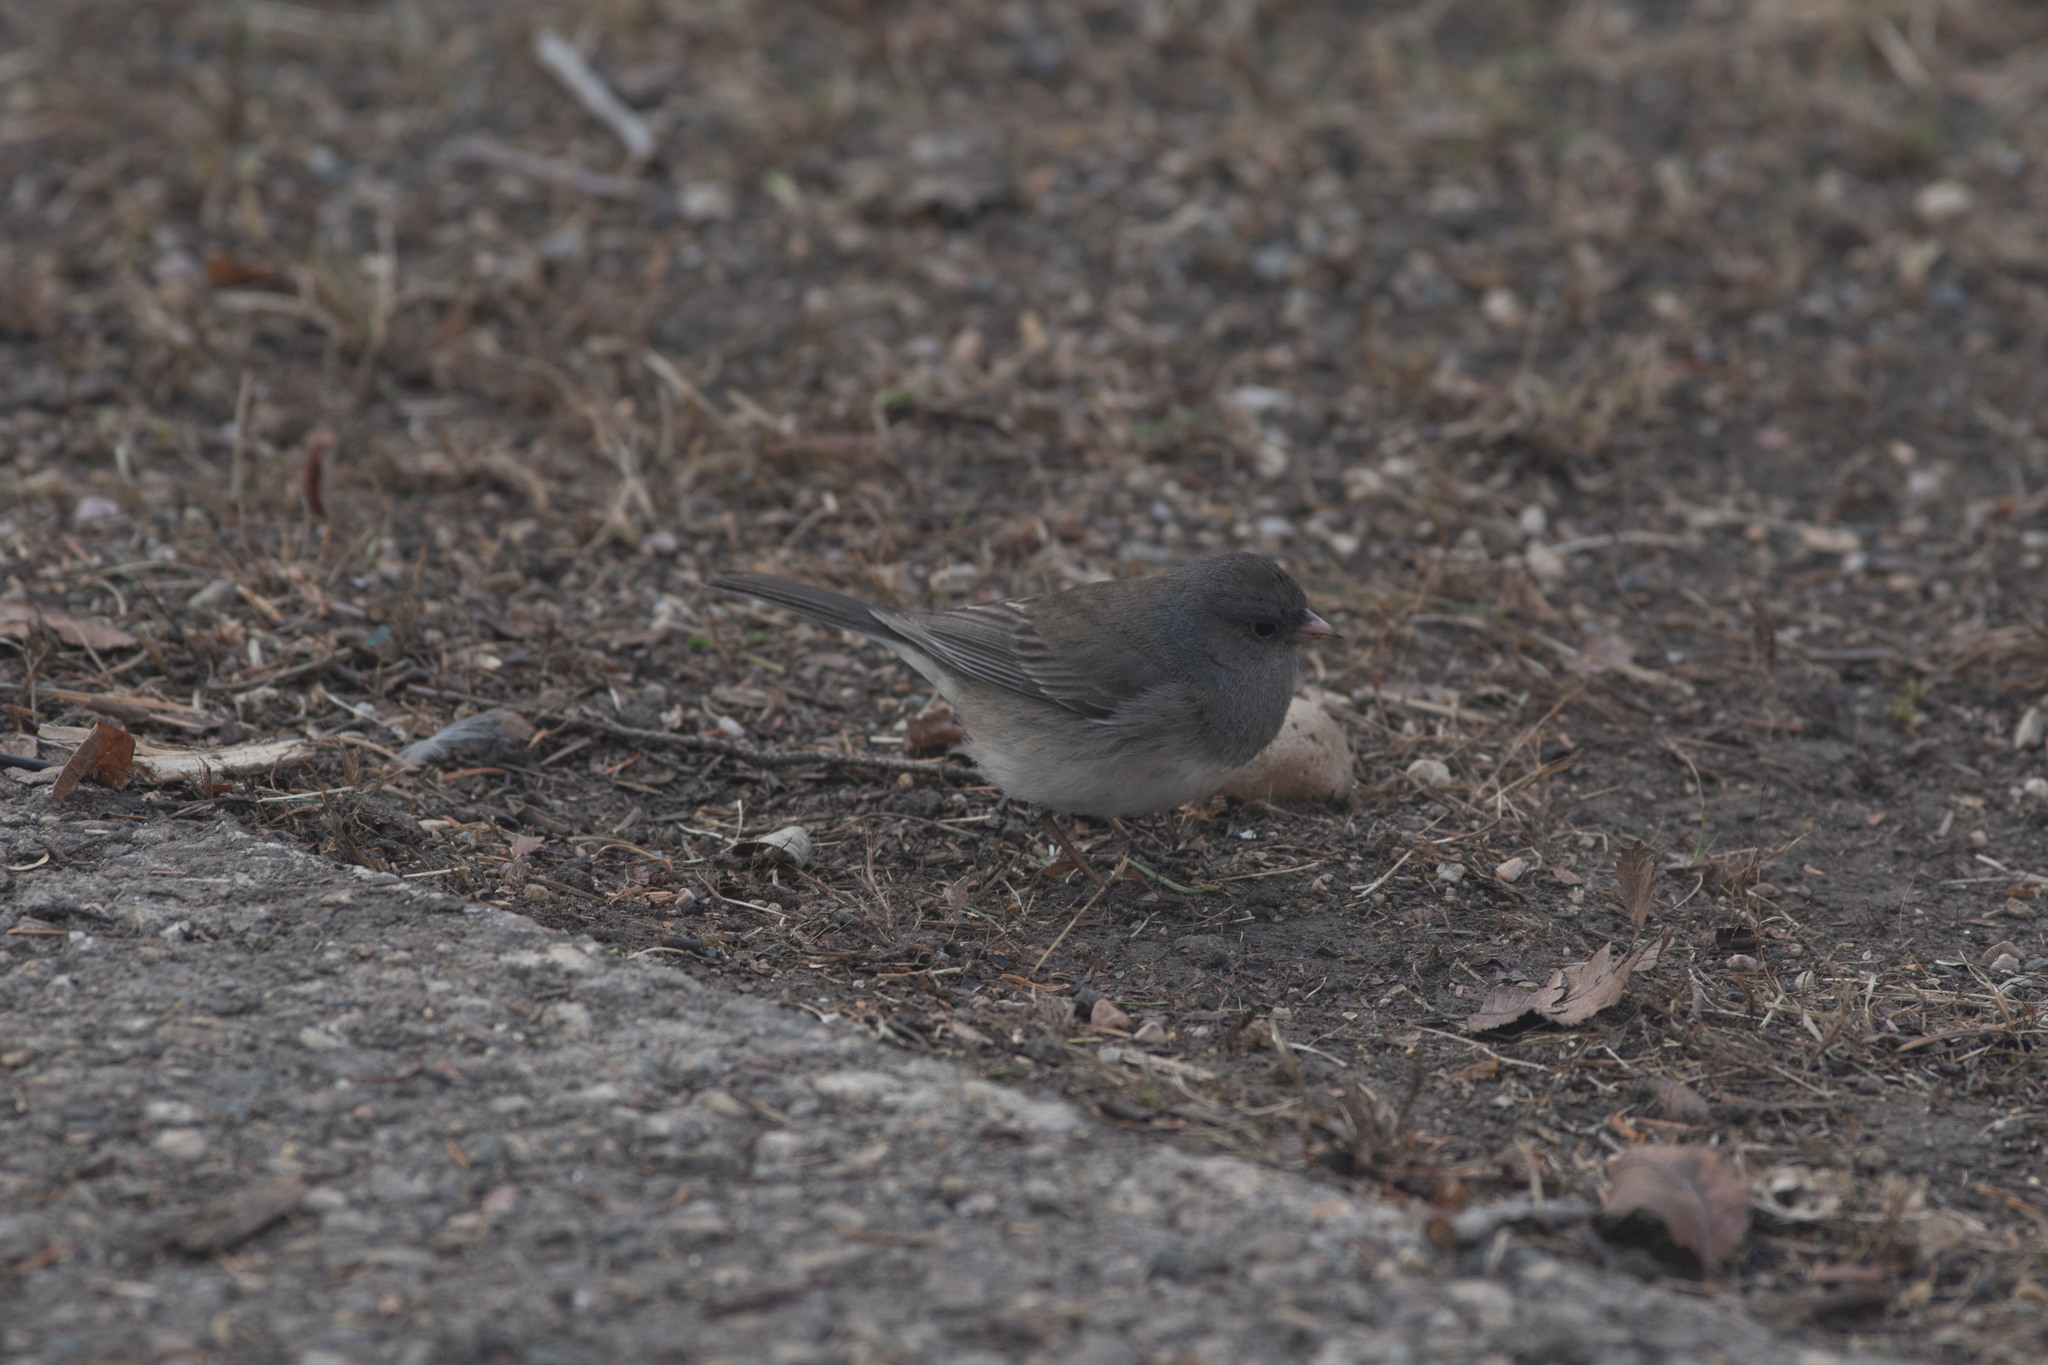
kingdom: Animalia
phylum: Chordata
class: Aves
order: Passeriformes
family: Passerellidae
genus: Junco
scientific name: Junco hyemalis
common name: Dark-eyed junco
